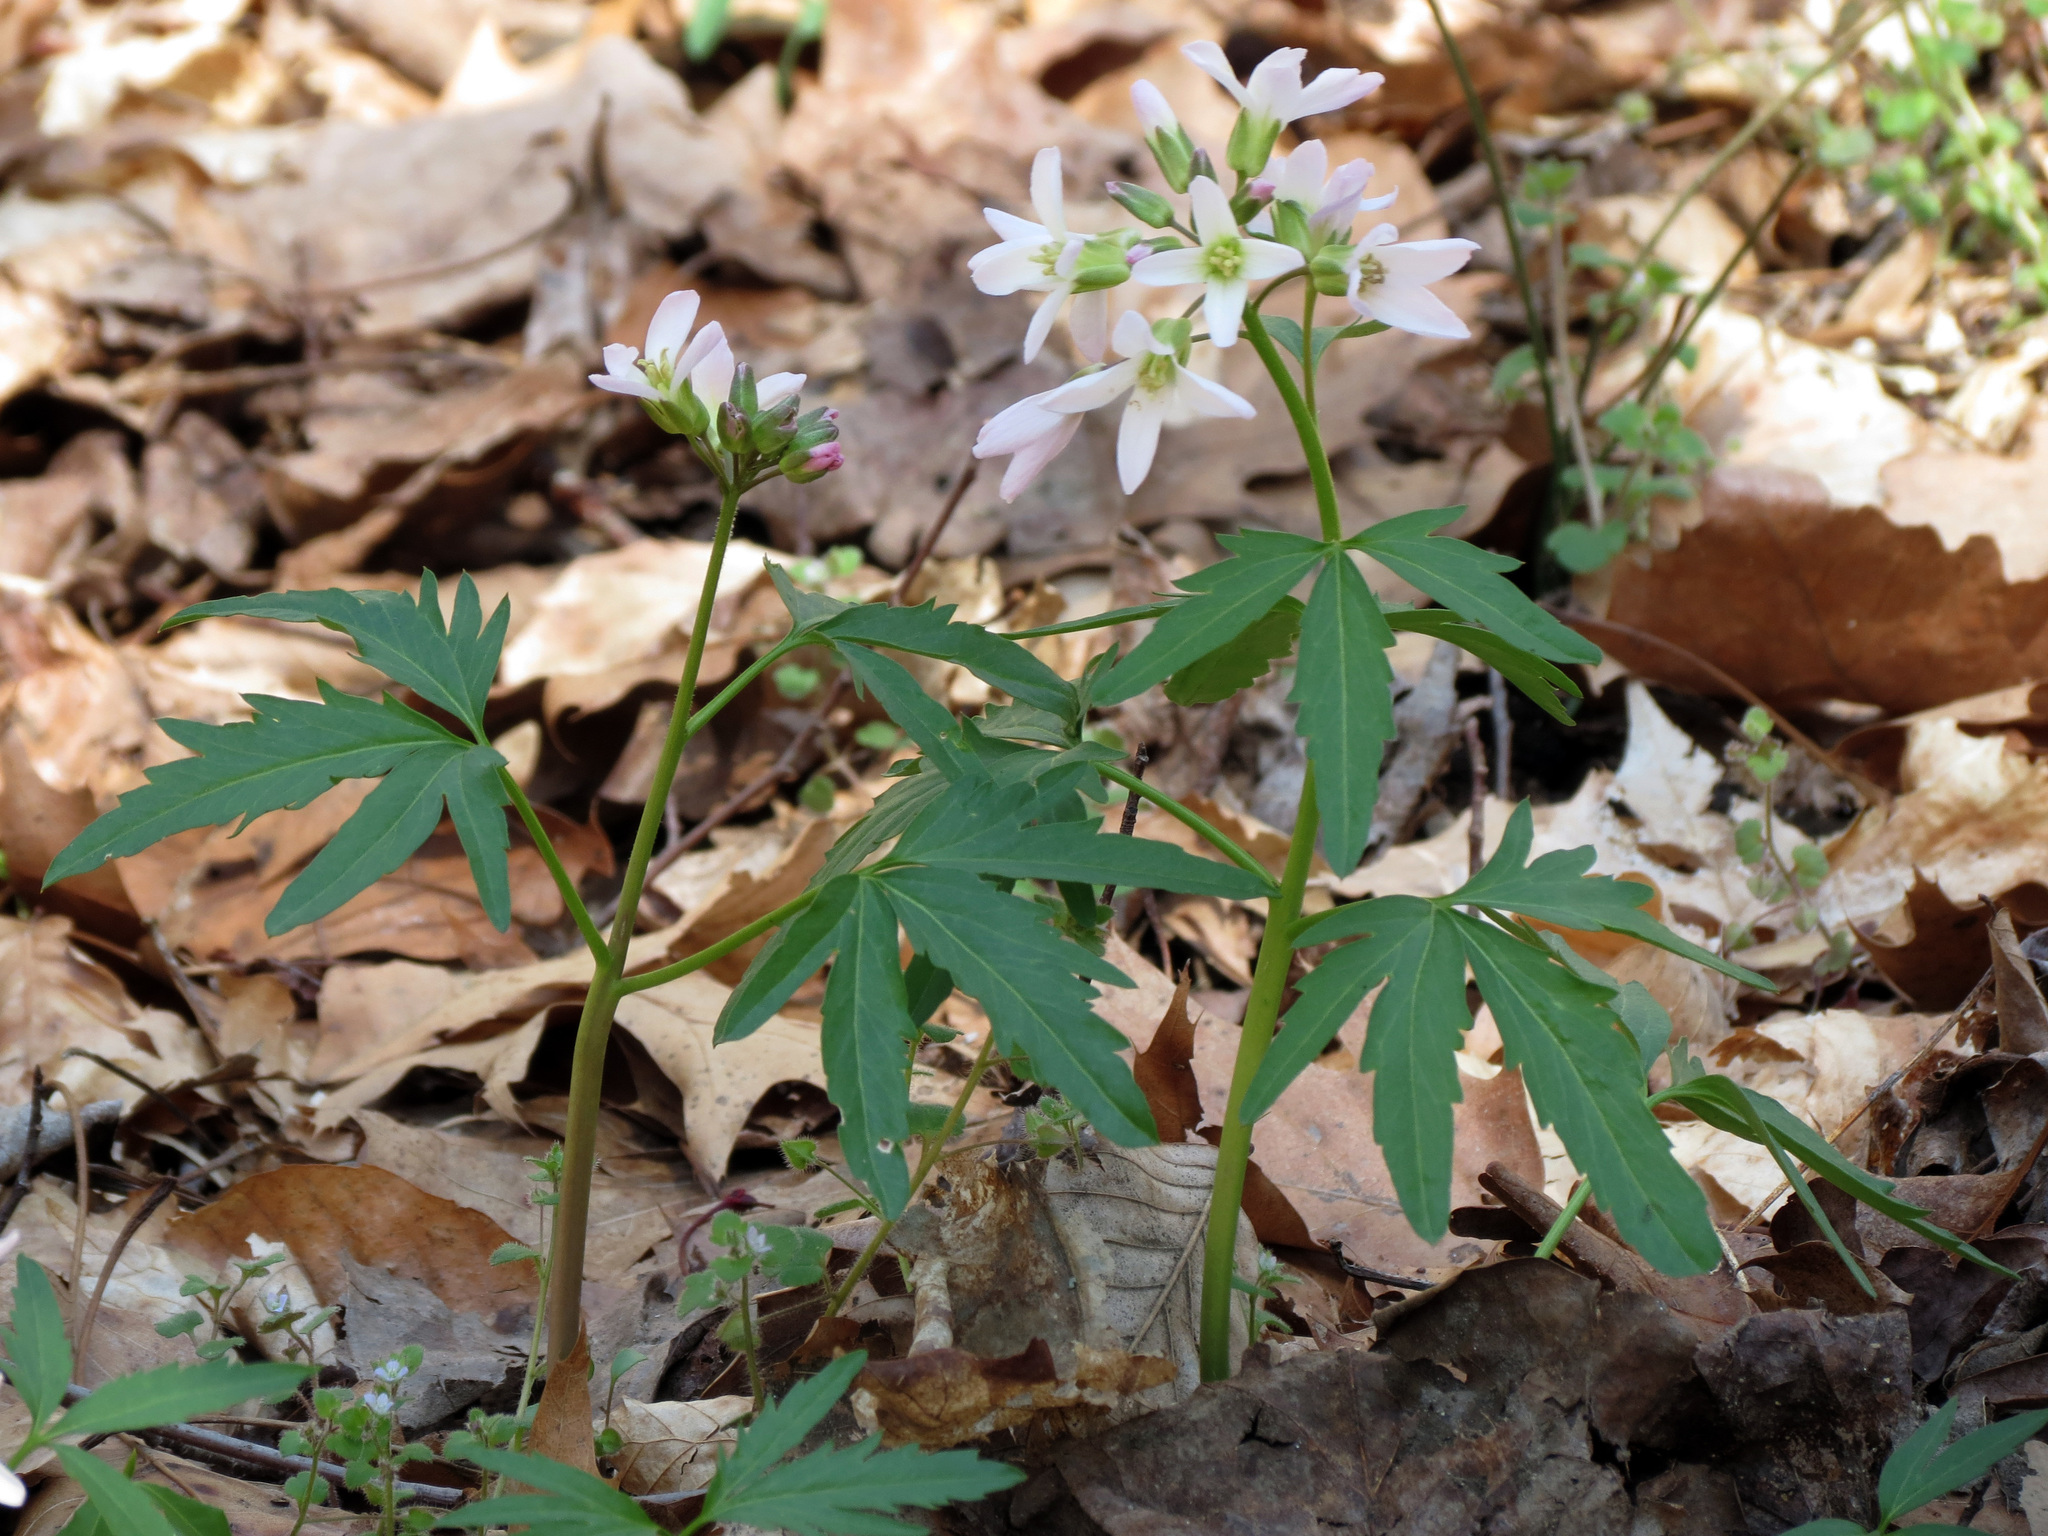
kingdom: Plantae
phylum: Tracheophyta
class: Magnoliopsida
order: Brassicales
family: Brassicaceae
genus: Cardamine
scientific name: Cardamine concatenata
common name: Cut-leaf toothcup
